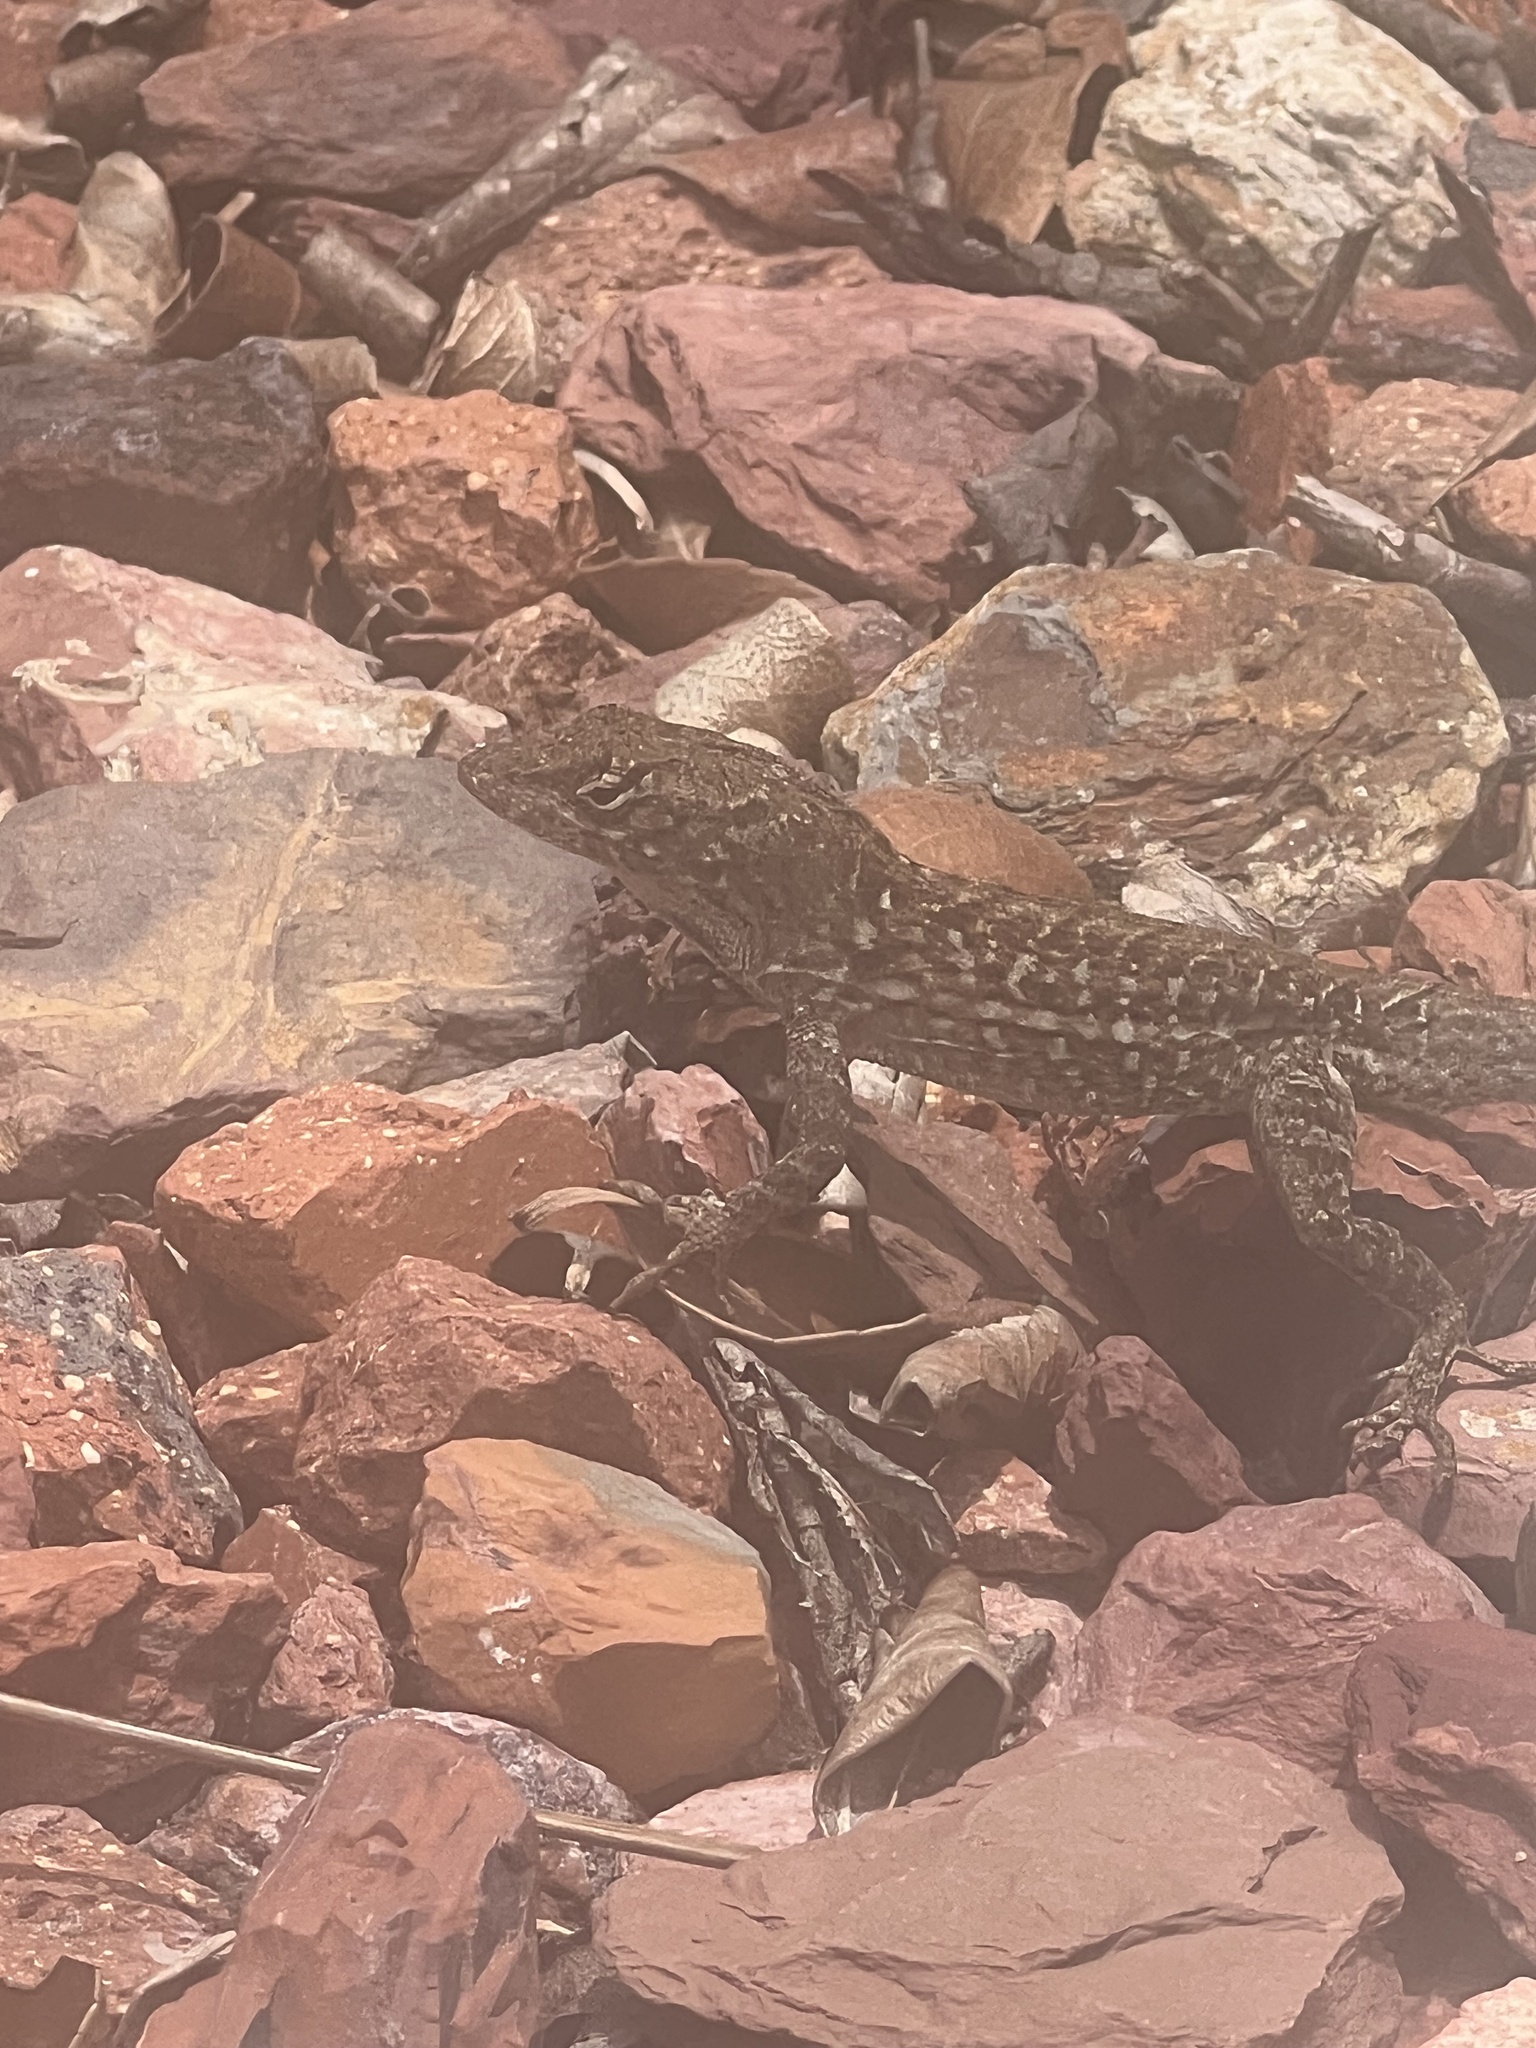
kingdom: Animalia
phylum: Chordata
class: Squamata
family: Dactyloidae
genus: Anolis
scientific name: Anolis sagrei
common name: Brown anole
